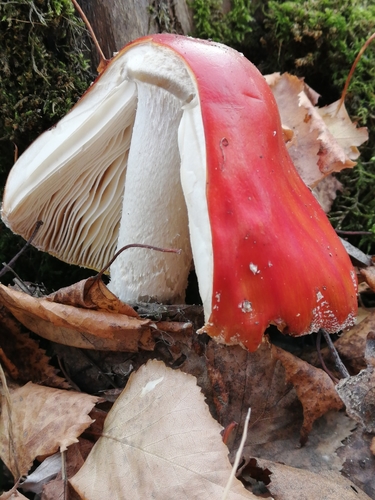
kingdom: Fungi
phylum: Basidiomycota
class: Agaricomycetes
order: Agaricales
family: Amanitaceae
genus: Amanita
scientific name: Amanita muscaria
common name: Fly agaric
